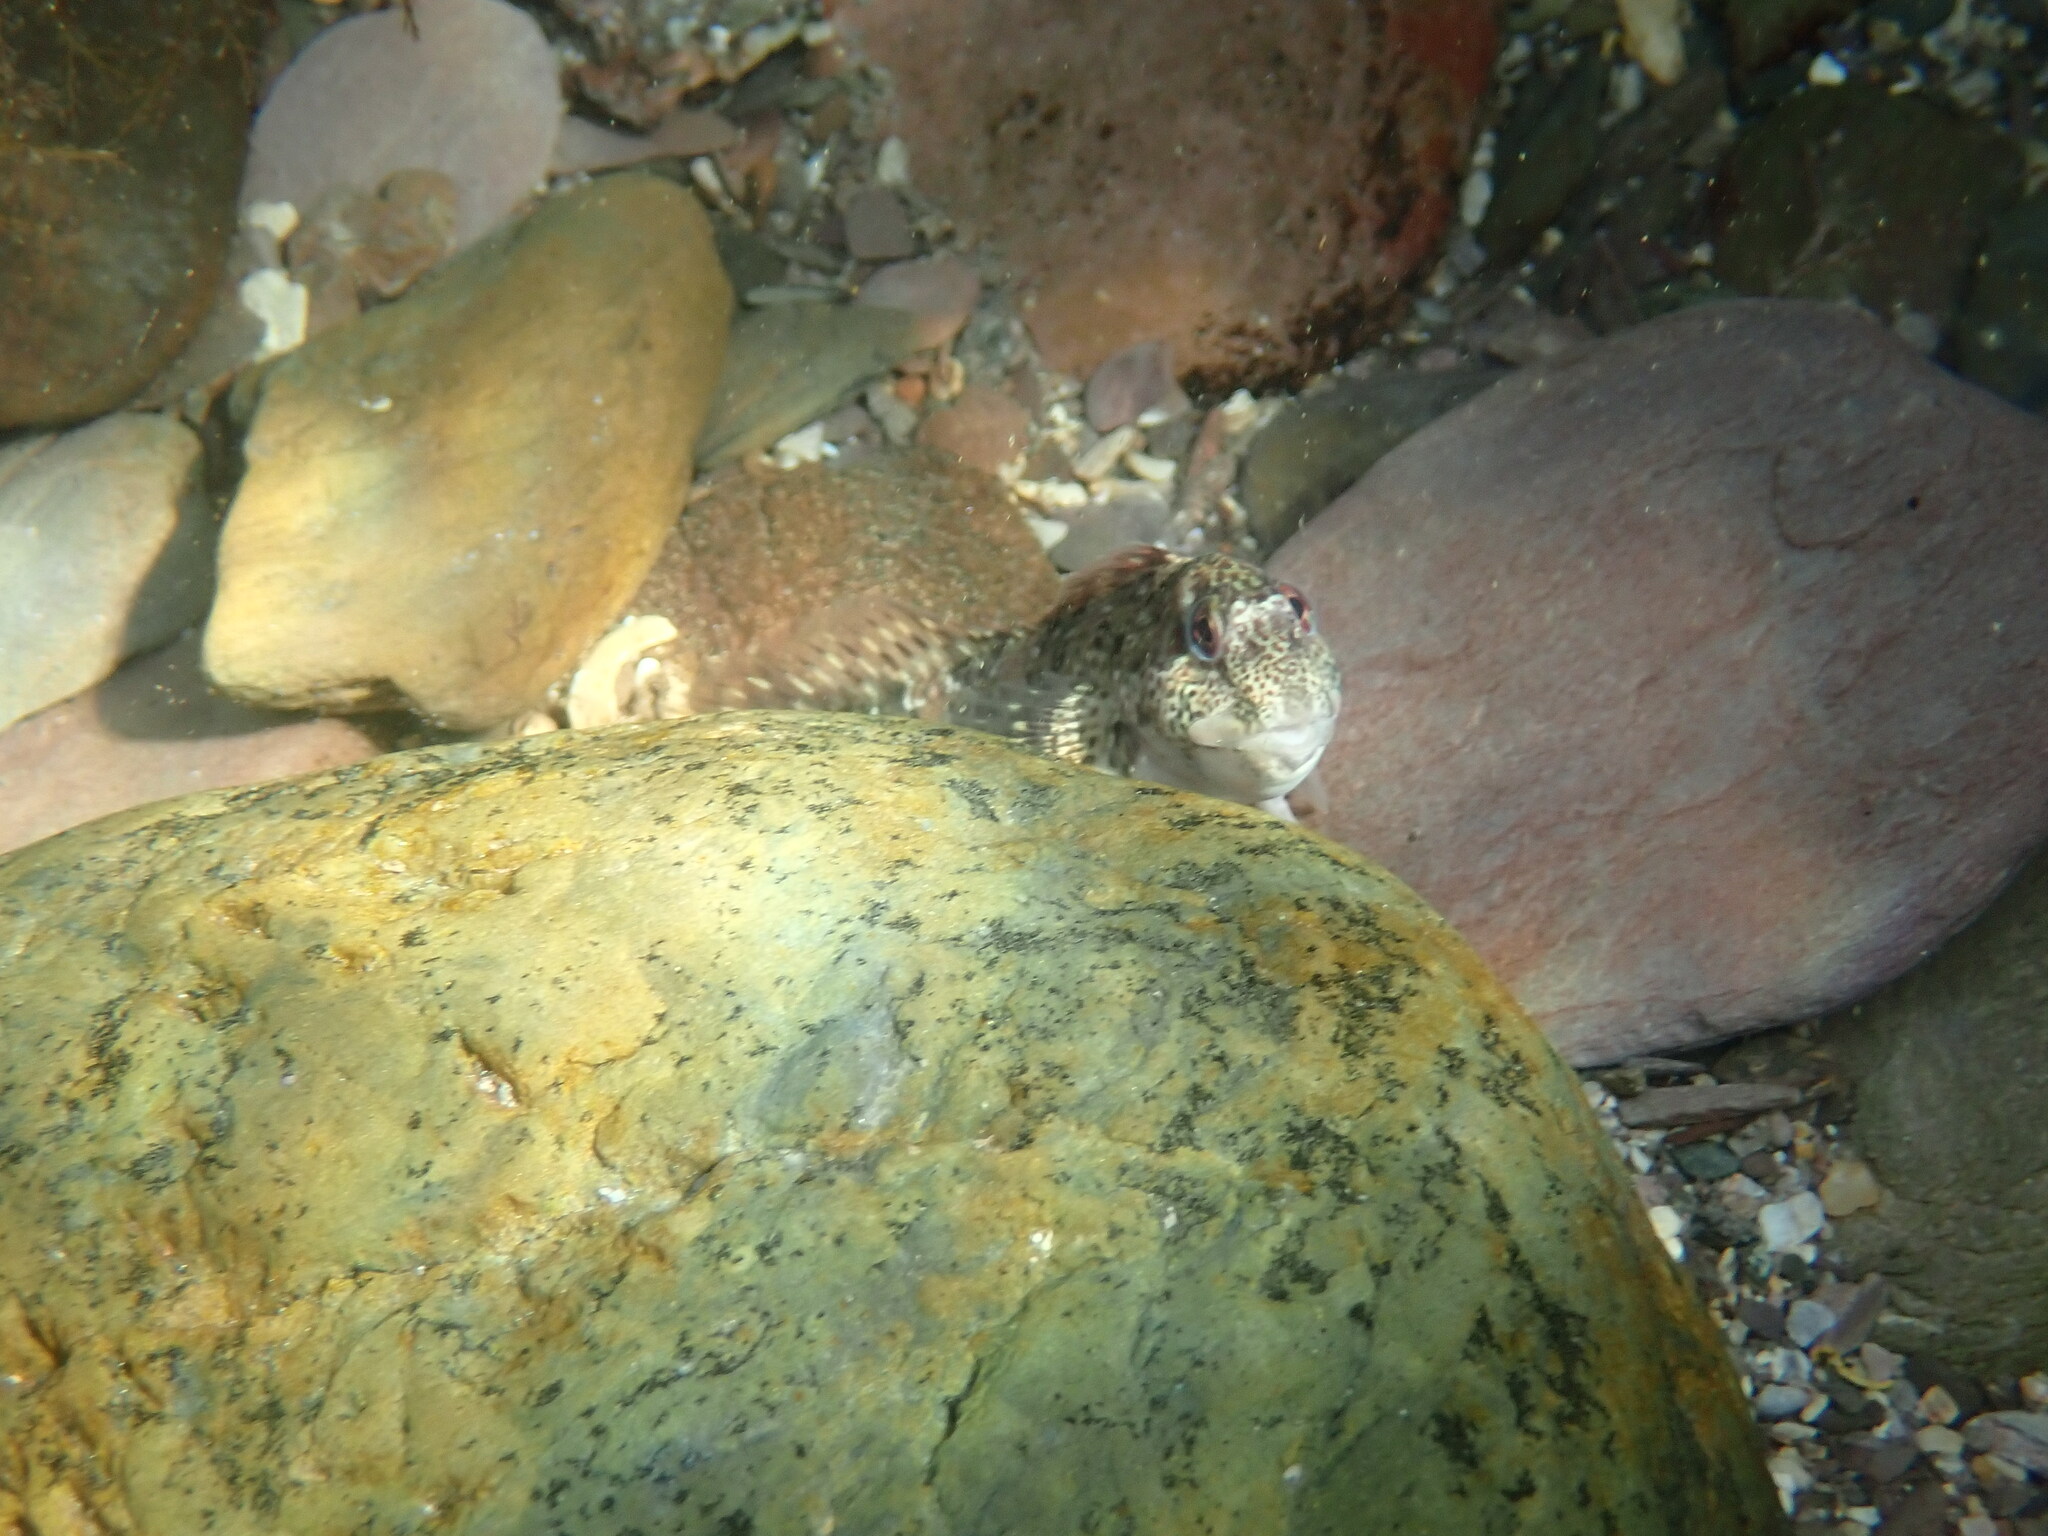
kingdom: Animalia
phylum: Chordata
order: Perciformes
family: Blenniidae
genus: Lipophrys
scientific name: Lipophrys pholis
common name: Shanny
